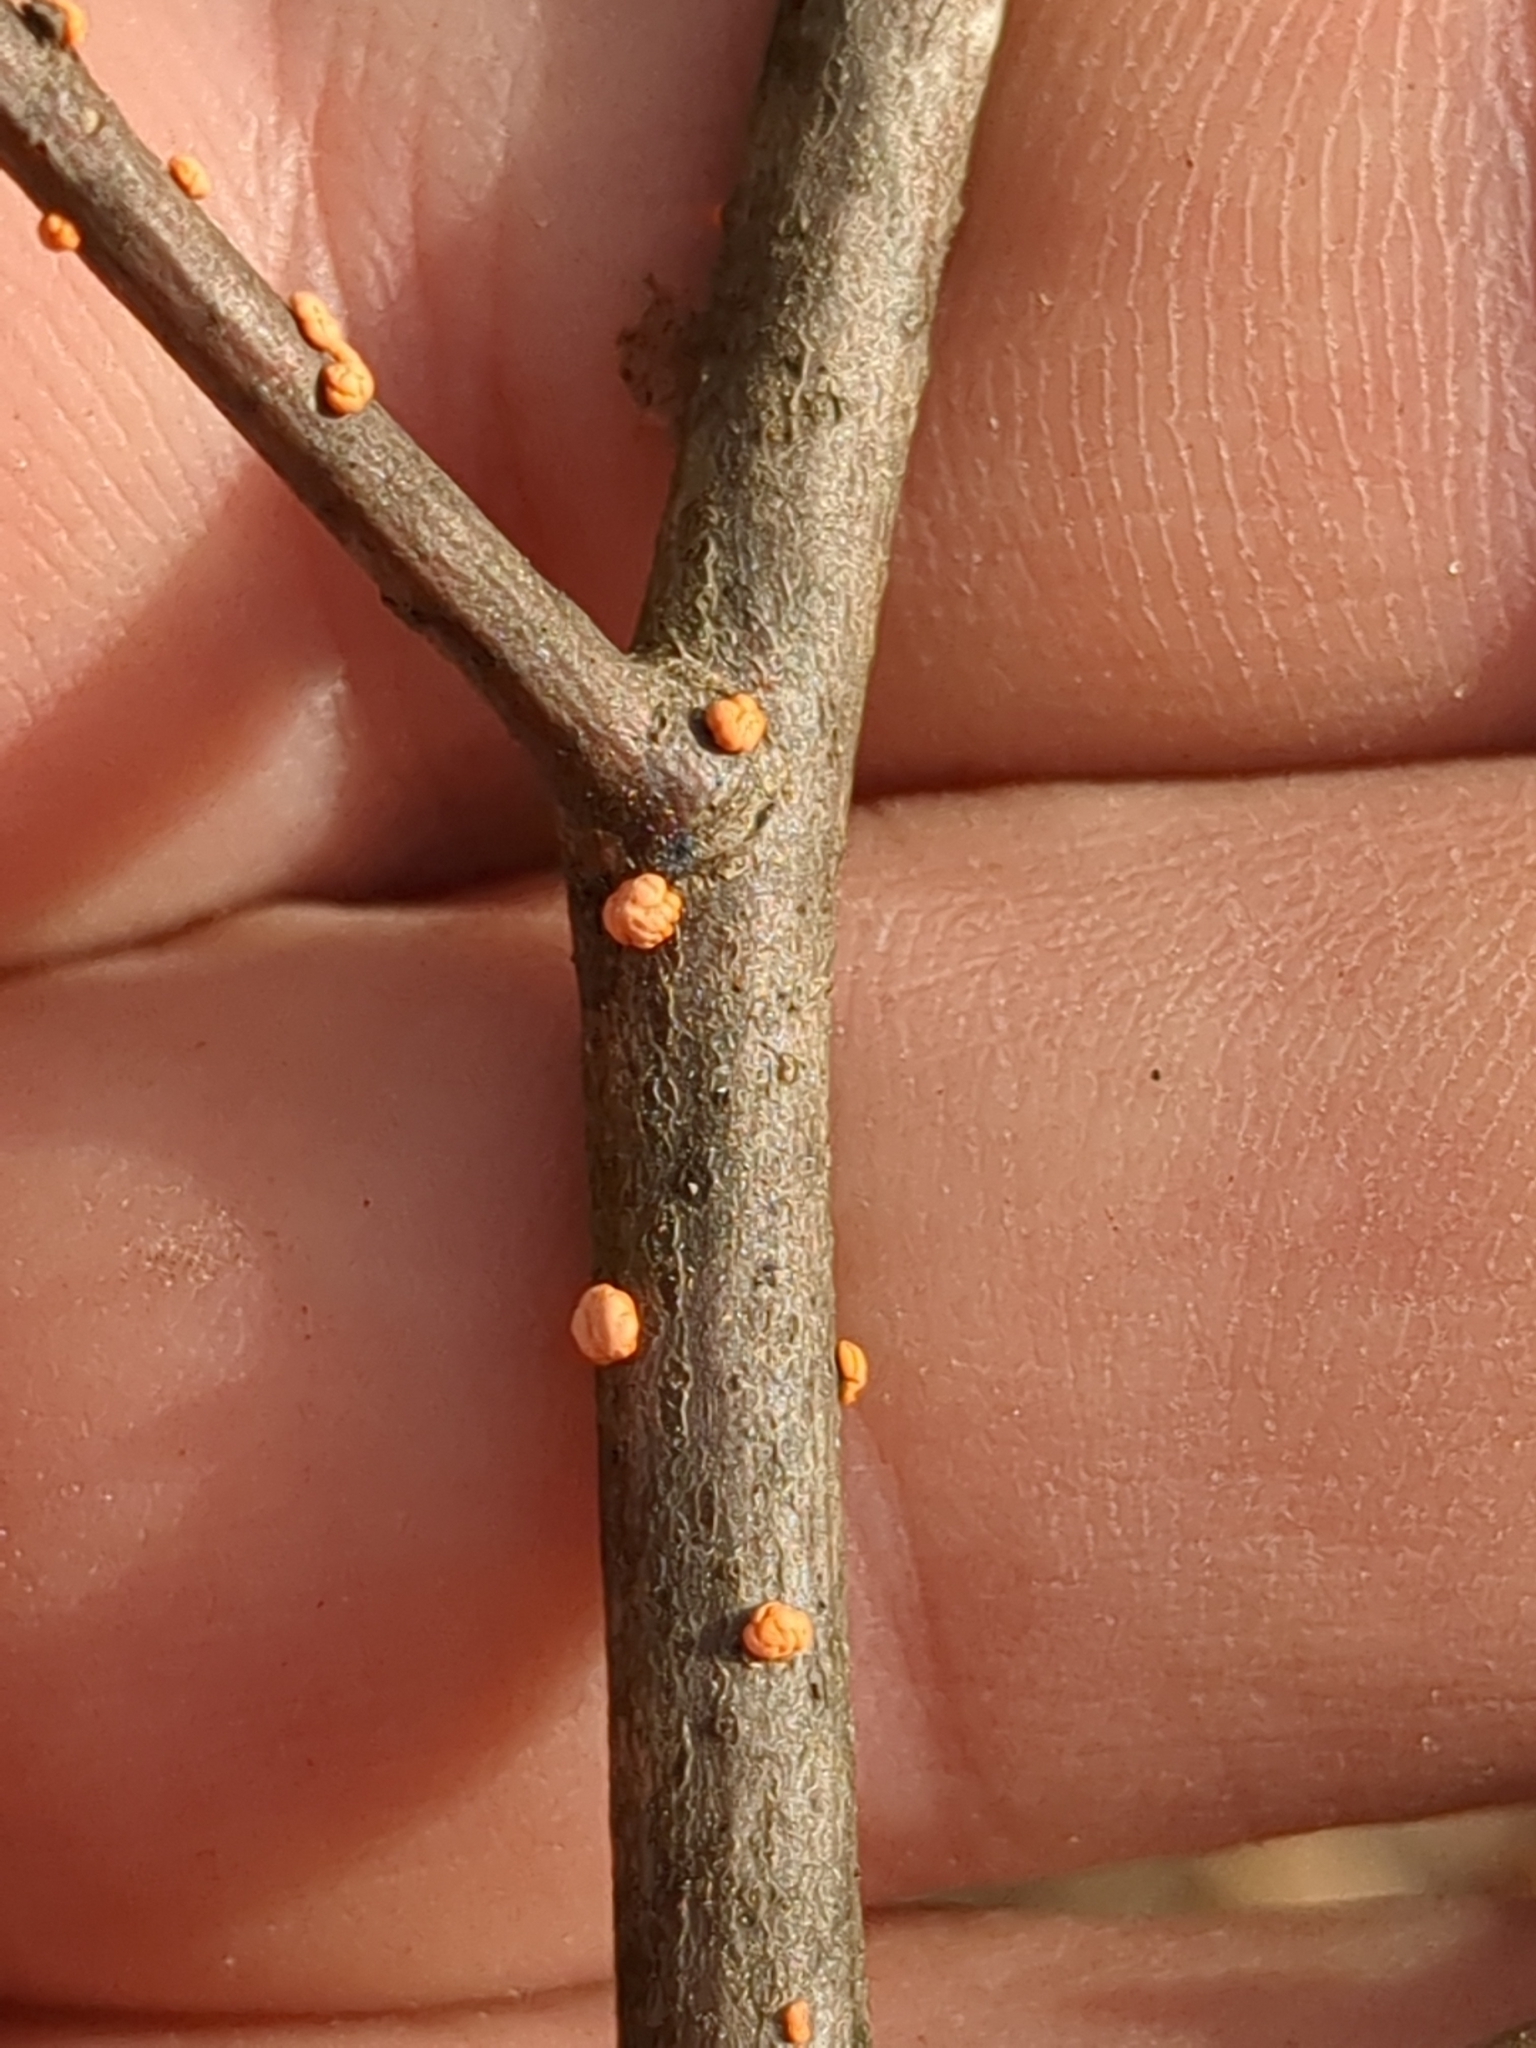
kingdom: Fungi
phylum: Ascomycota
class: Sordariomycetes
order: Hypocreales
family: Nectriaceae
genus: Nectria
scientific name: Nectria cinnabarina
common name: Coral spot
